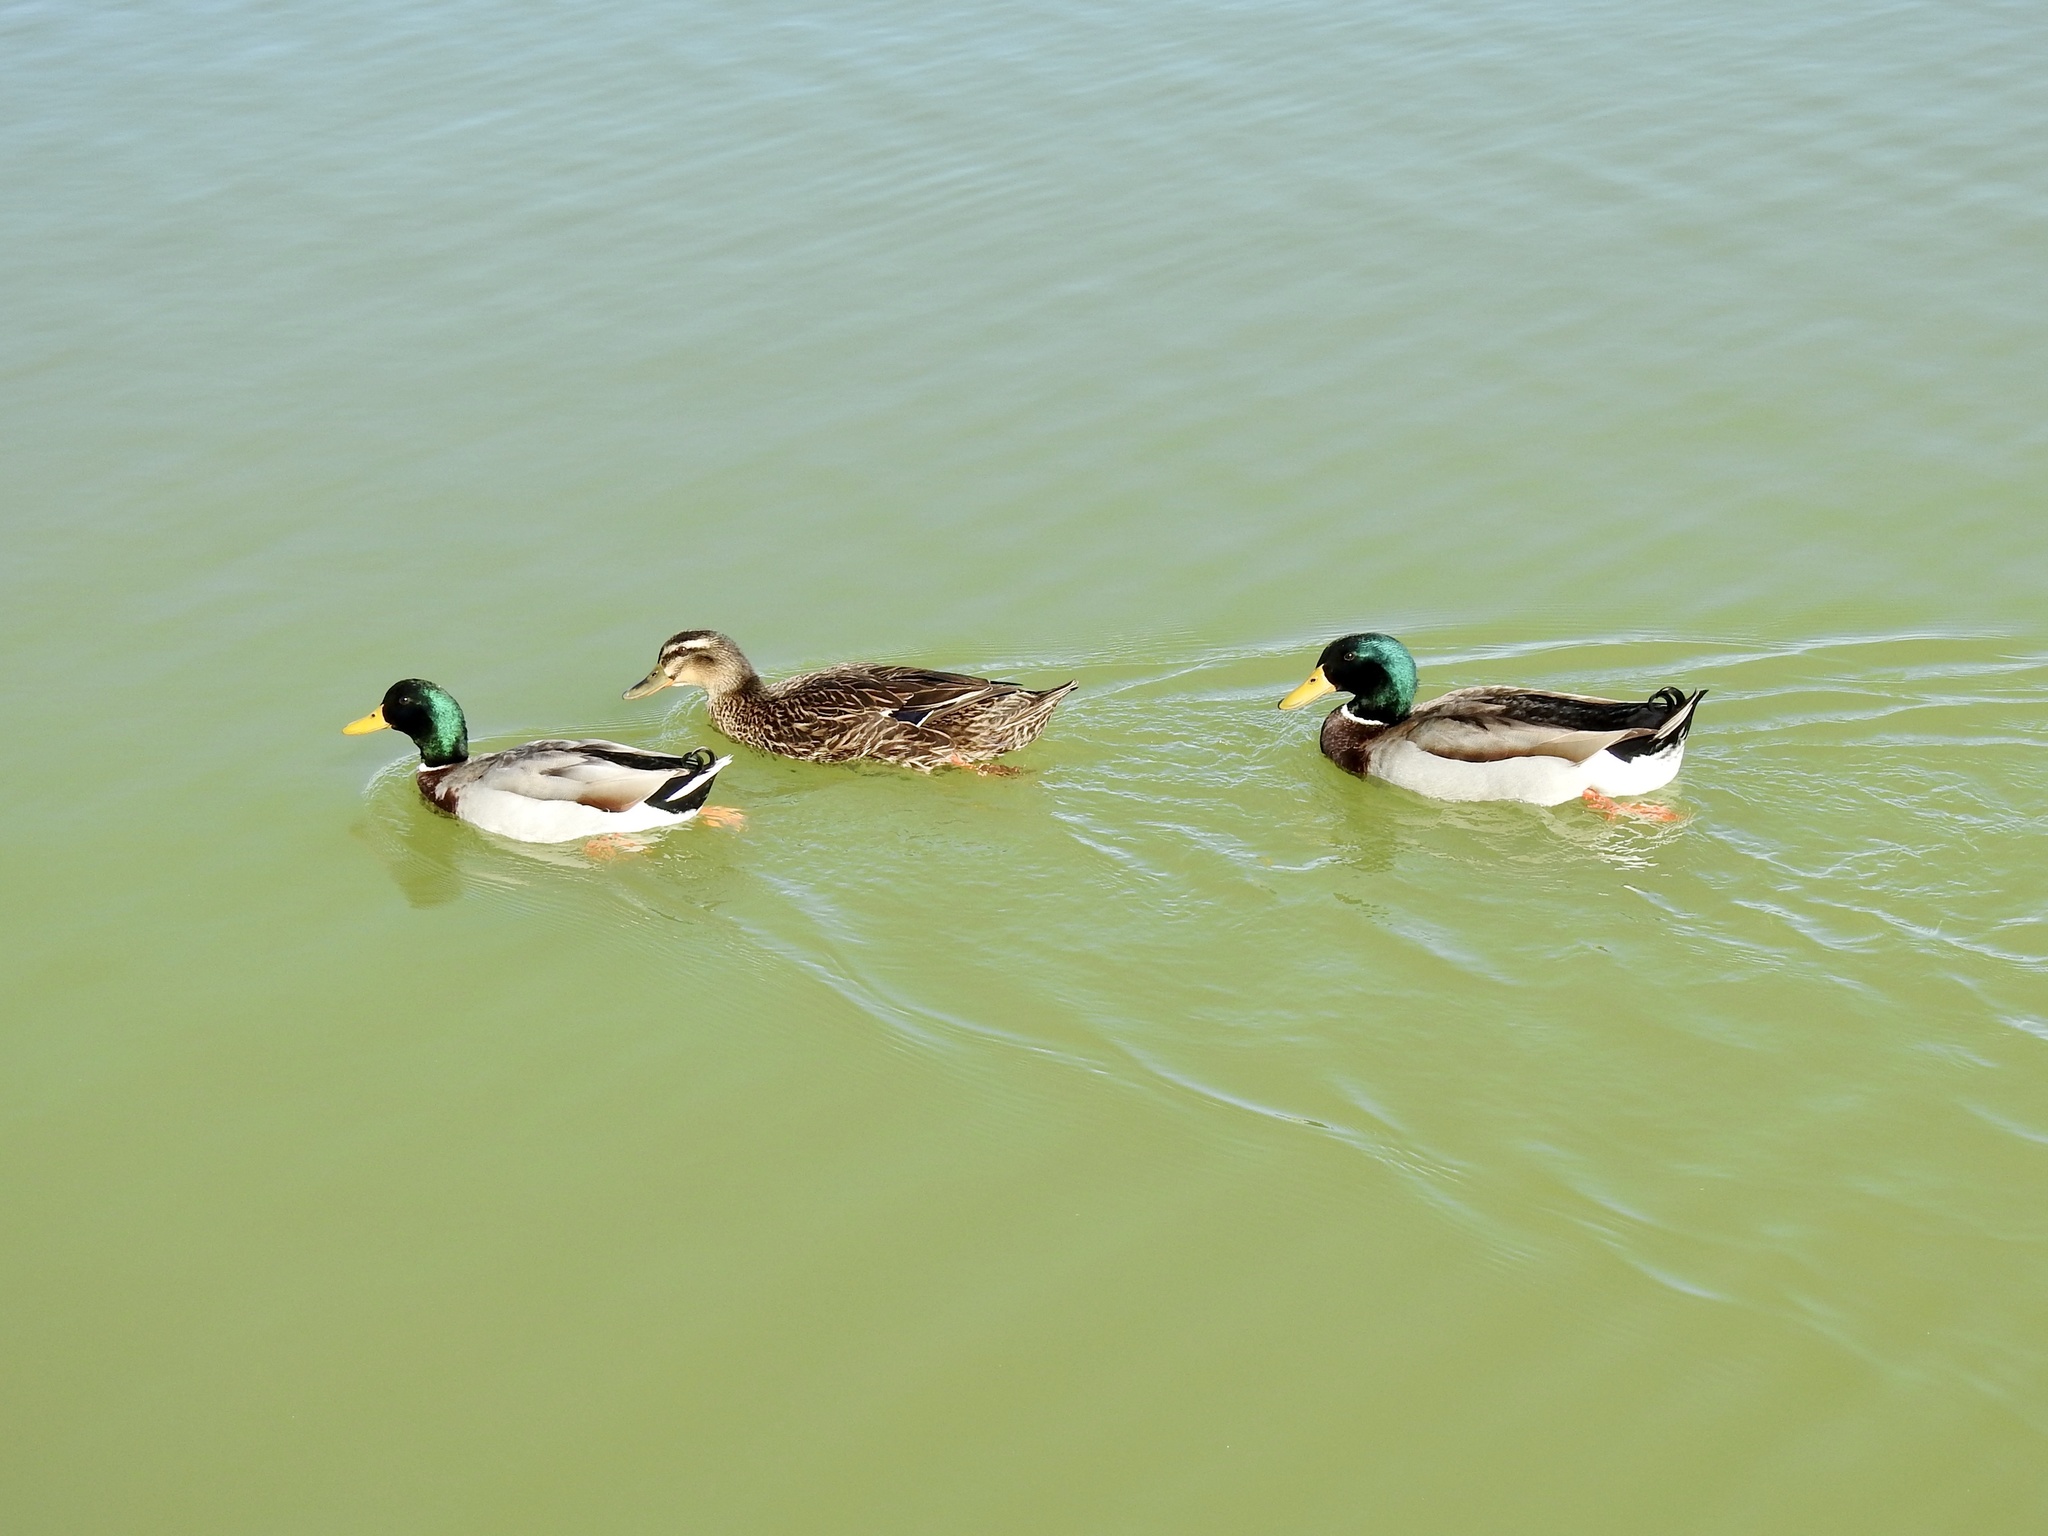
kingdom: Animalia
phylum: Chordata
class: Aves
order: Anseriformes
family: Anatidae
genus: Anas
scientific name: Anas platyrhynchos
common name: Mallard
